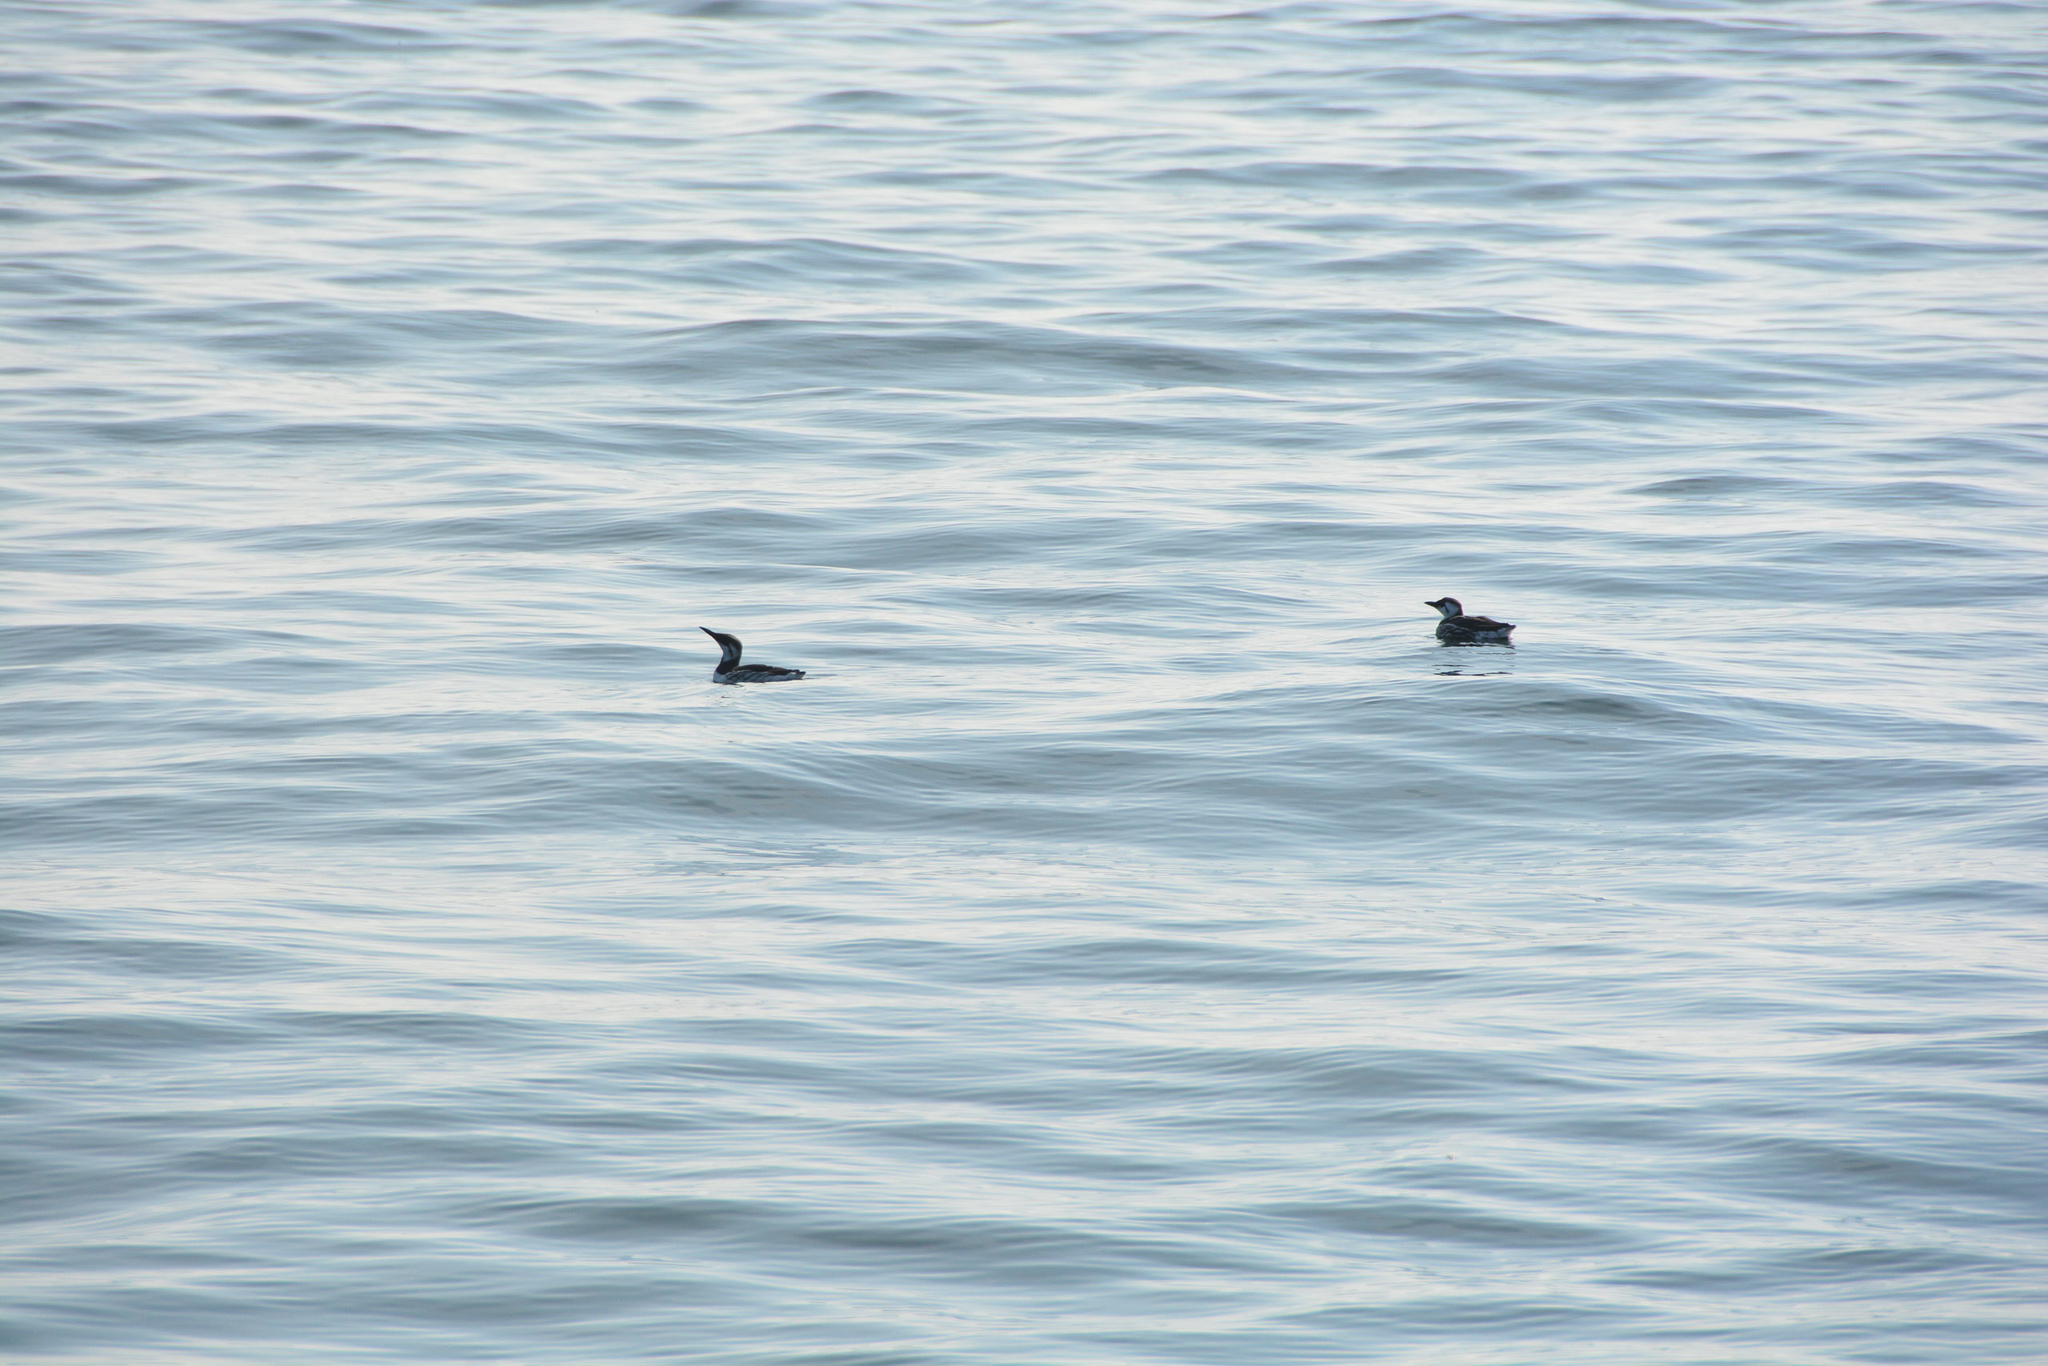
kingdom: Animalia
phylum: Chordata
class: Aves
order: Charadriiformes
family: Alcidae
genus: Uria
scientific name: Uria aalge
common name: Common murre
